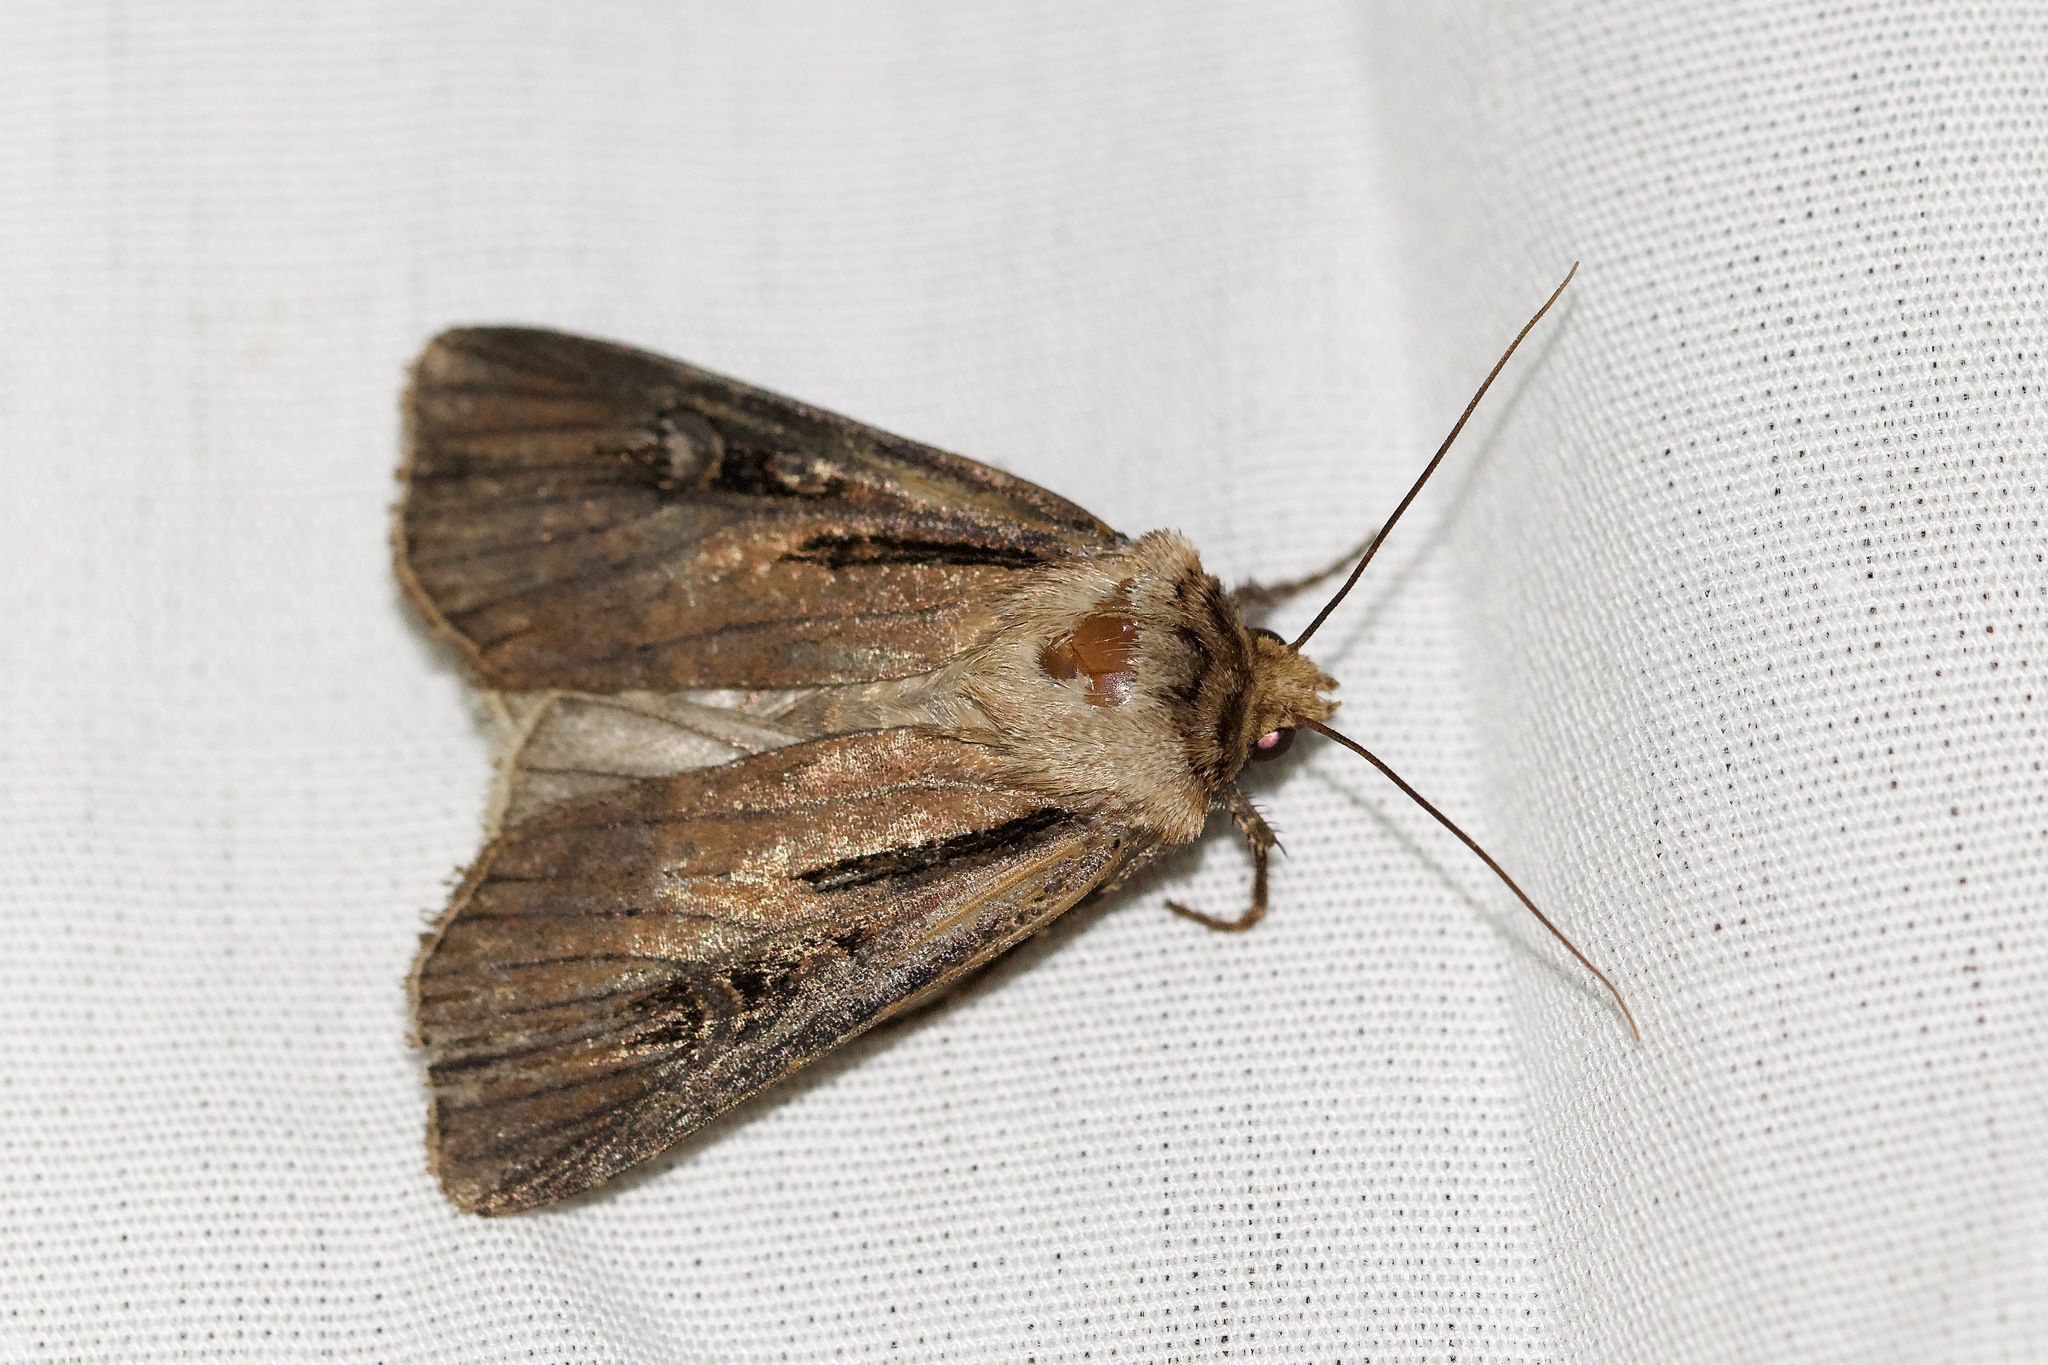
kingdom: Animalia
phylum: Arthropoda
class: Insecta
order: Lepidoptera
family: Noctuidae
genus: Agrotis
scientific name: Agrotis volubilis
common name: Voluble dart
